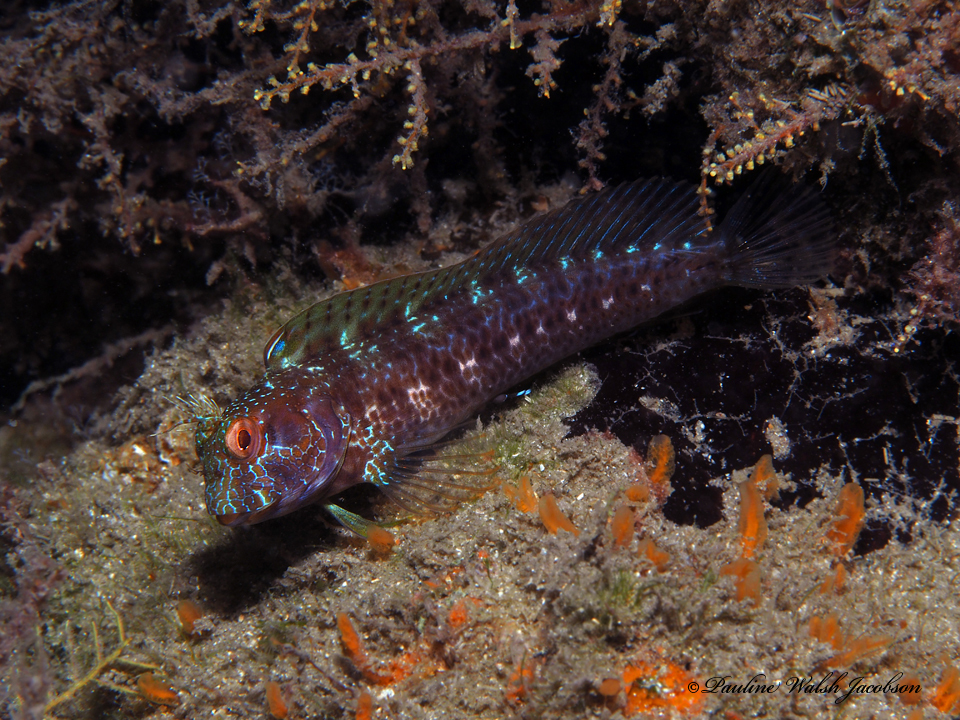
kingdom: Animalia
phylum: Chordata
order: Perciformes
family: Blenniidae
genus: Parablennius
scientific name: Parablennius marmoreus
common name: Seaweed blenny
